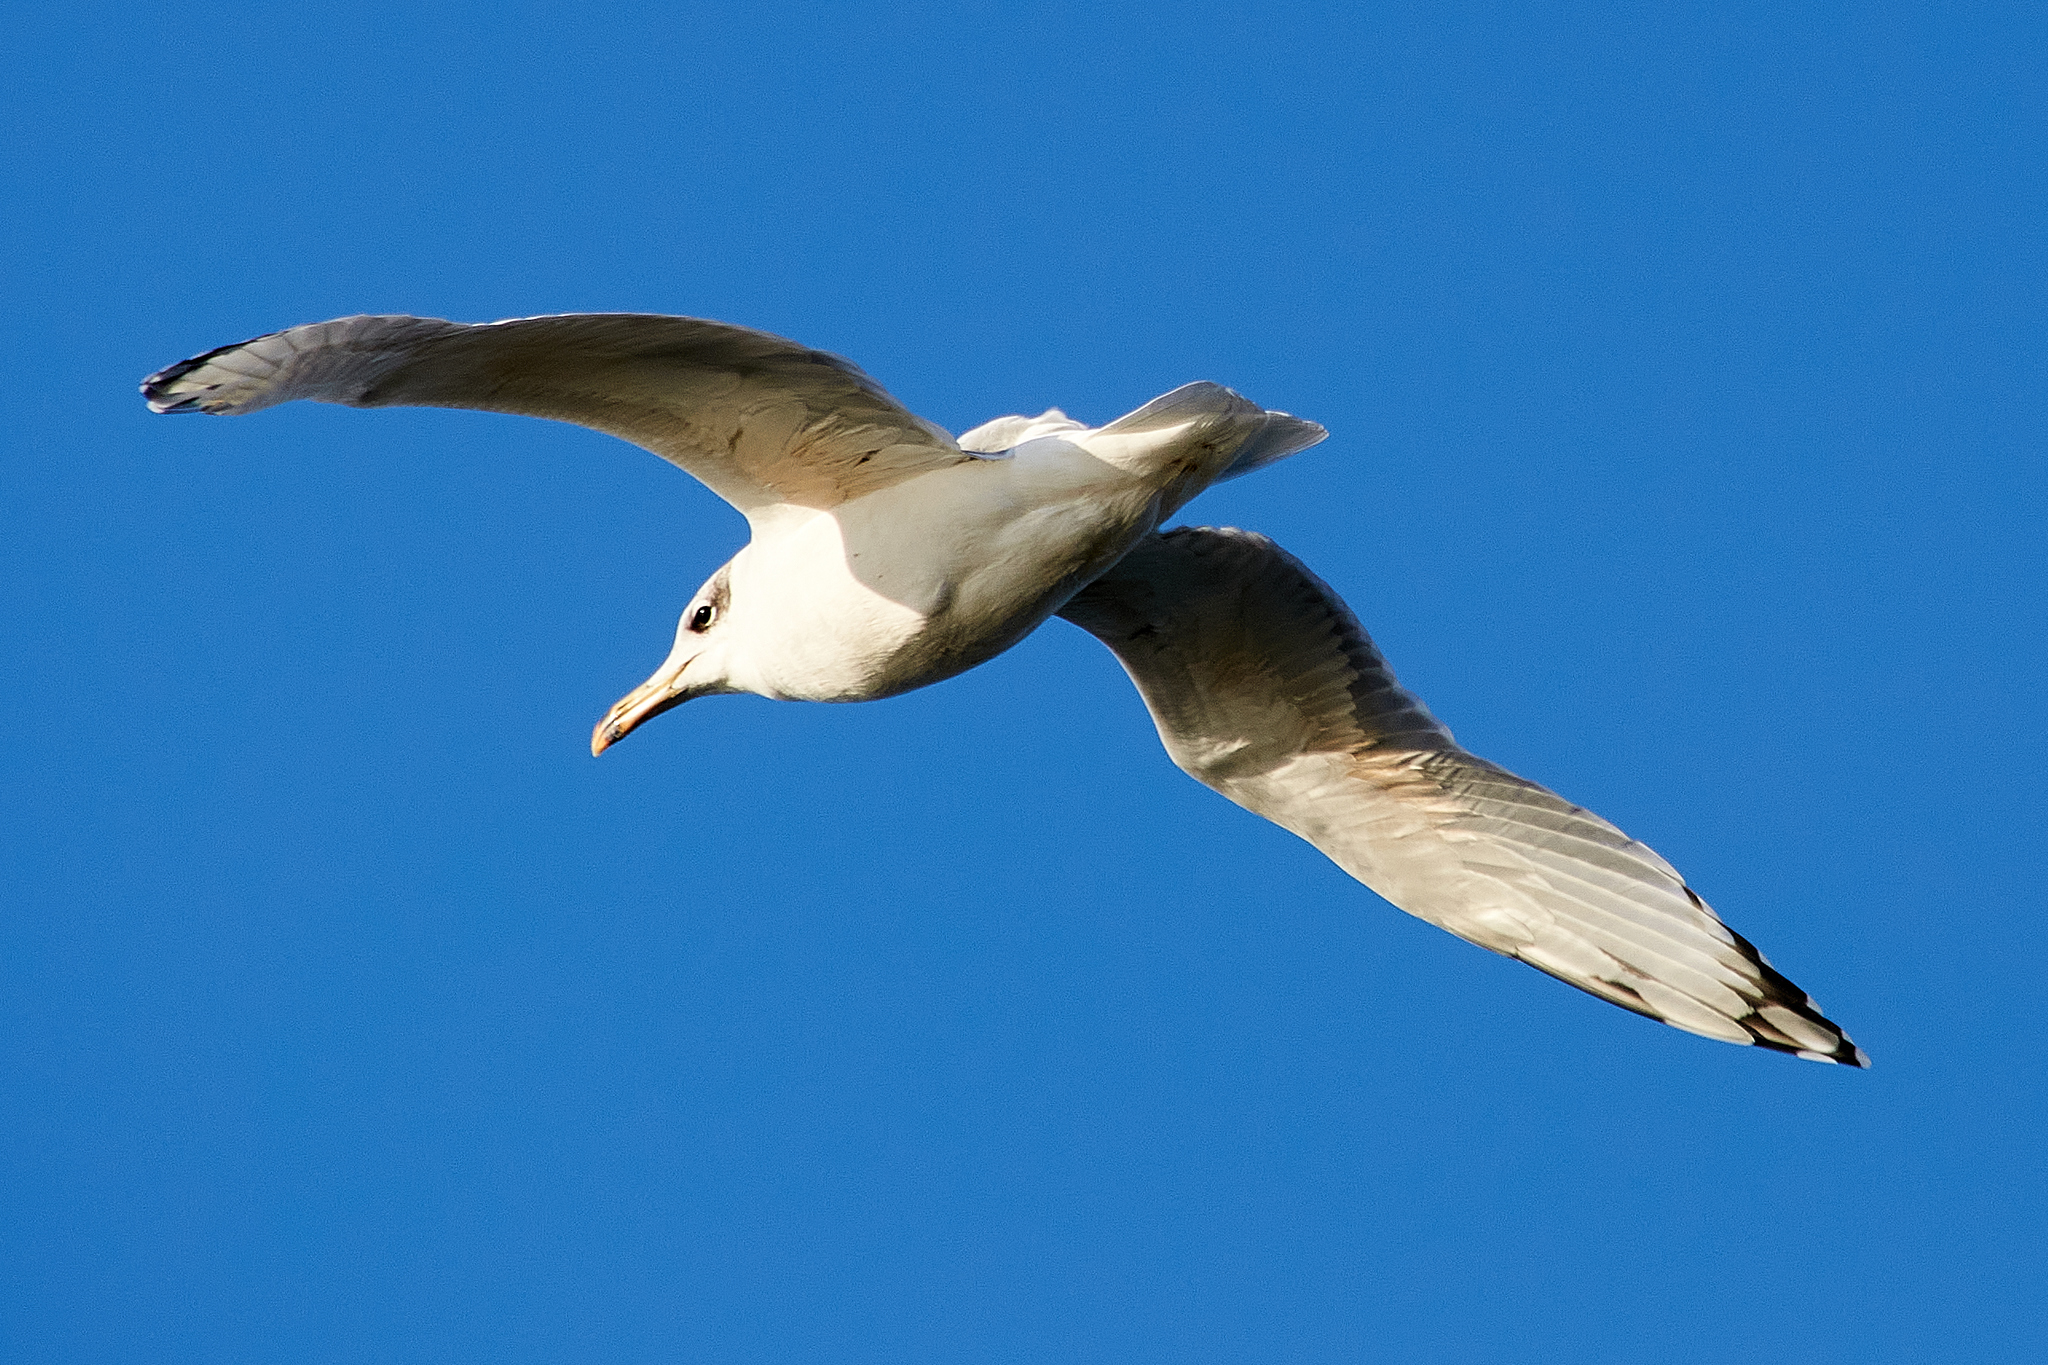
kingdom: Animalia
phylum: Chordata
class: Aves
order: Charadriiformes
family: Laridae
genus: Ichthyaetus
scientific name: Ichthyaetus ichthyaetus
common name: Pallas's gull
